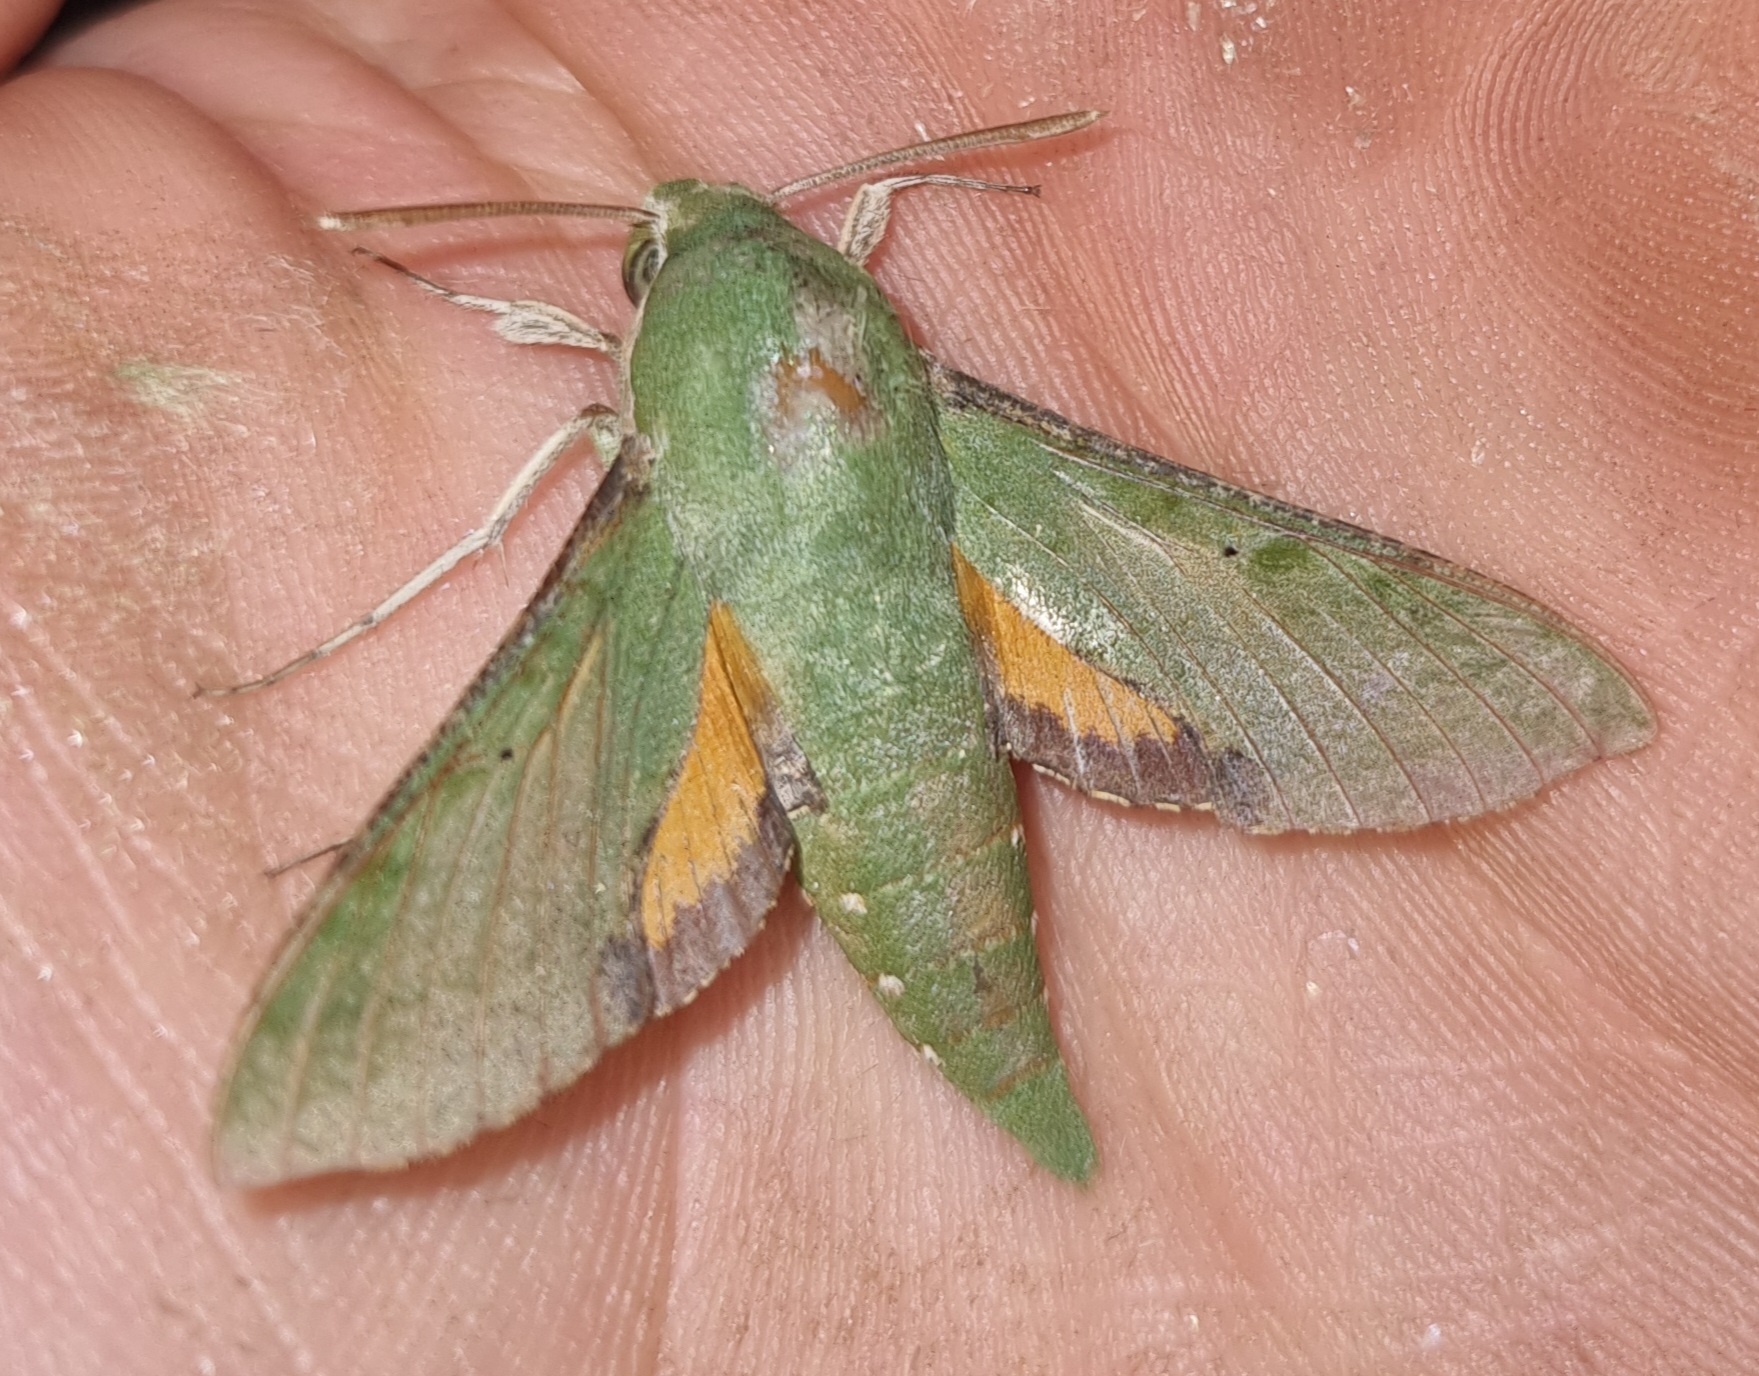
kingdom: Animalia
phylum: Arthropoda
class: Insecta
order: Lepidoptera
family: Sphingidae
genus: Basiothia
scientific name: Basiothia medea
